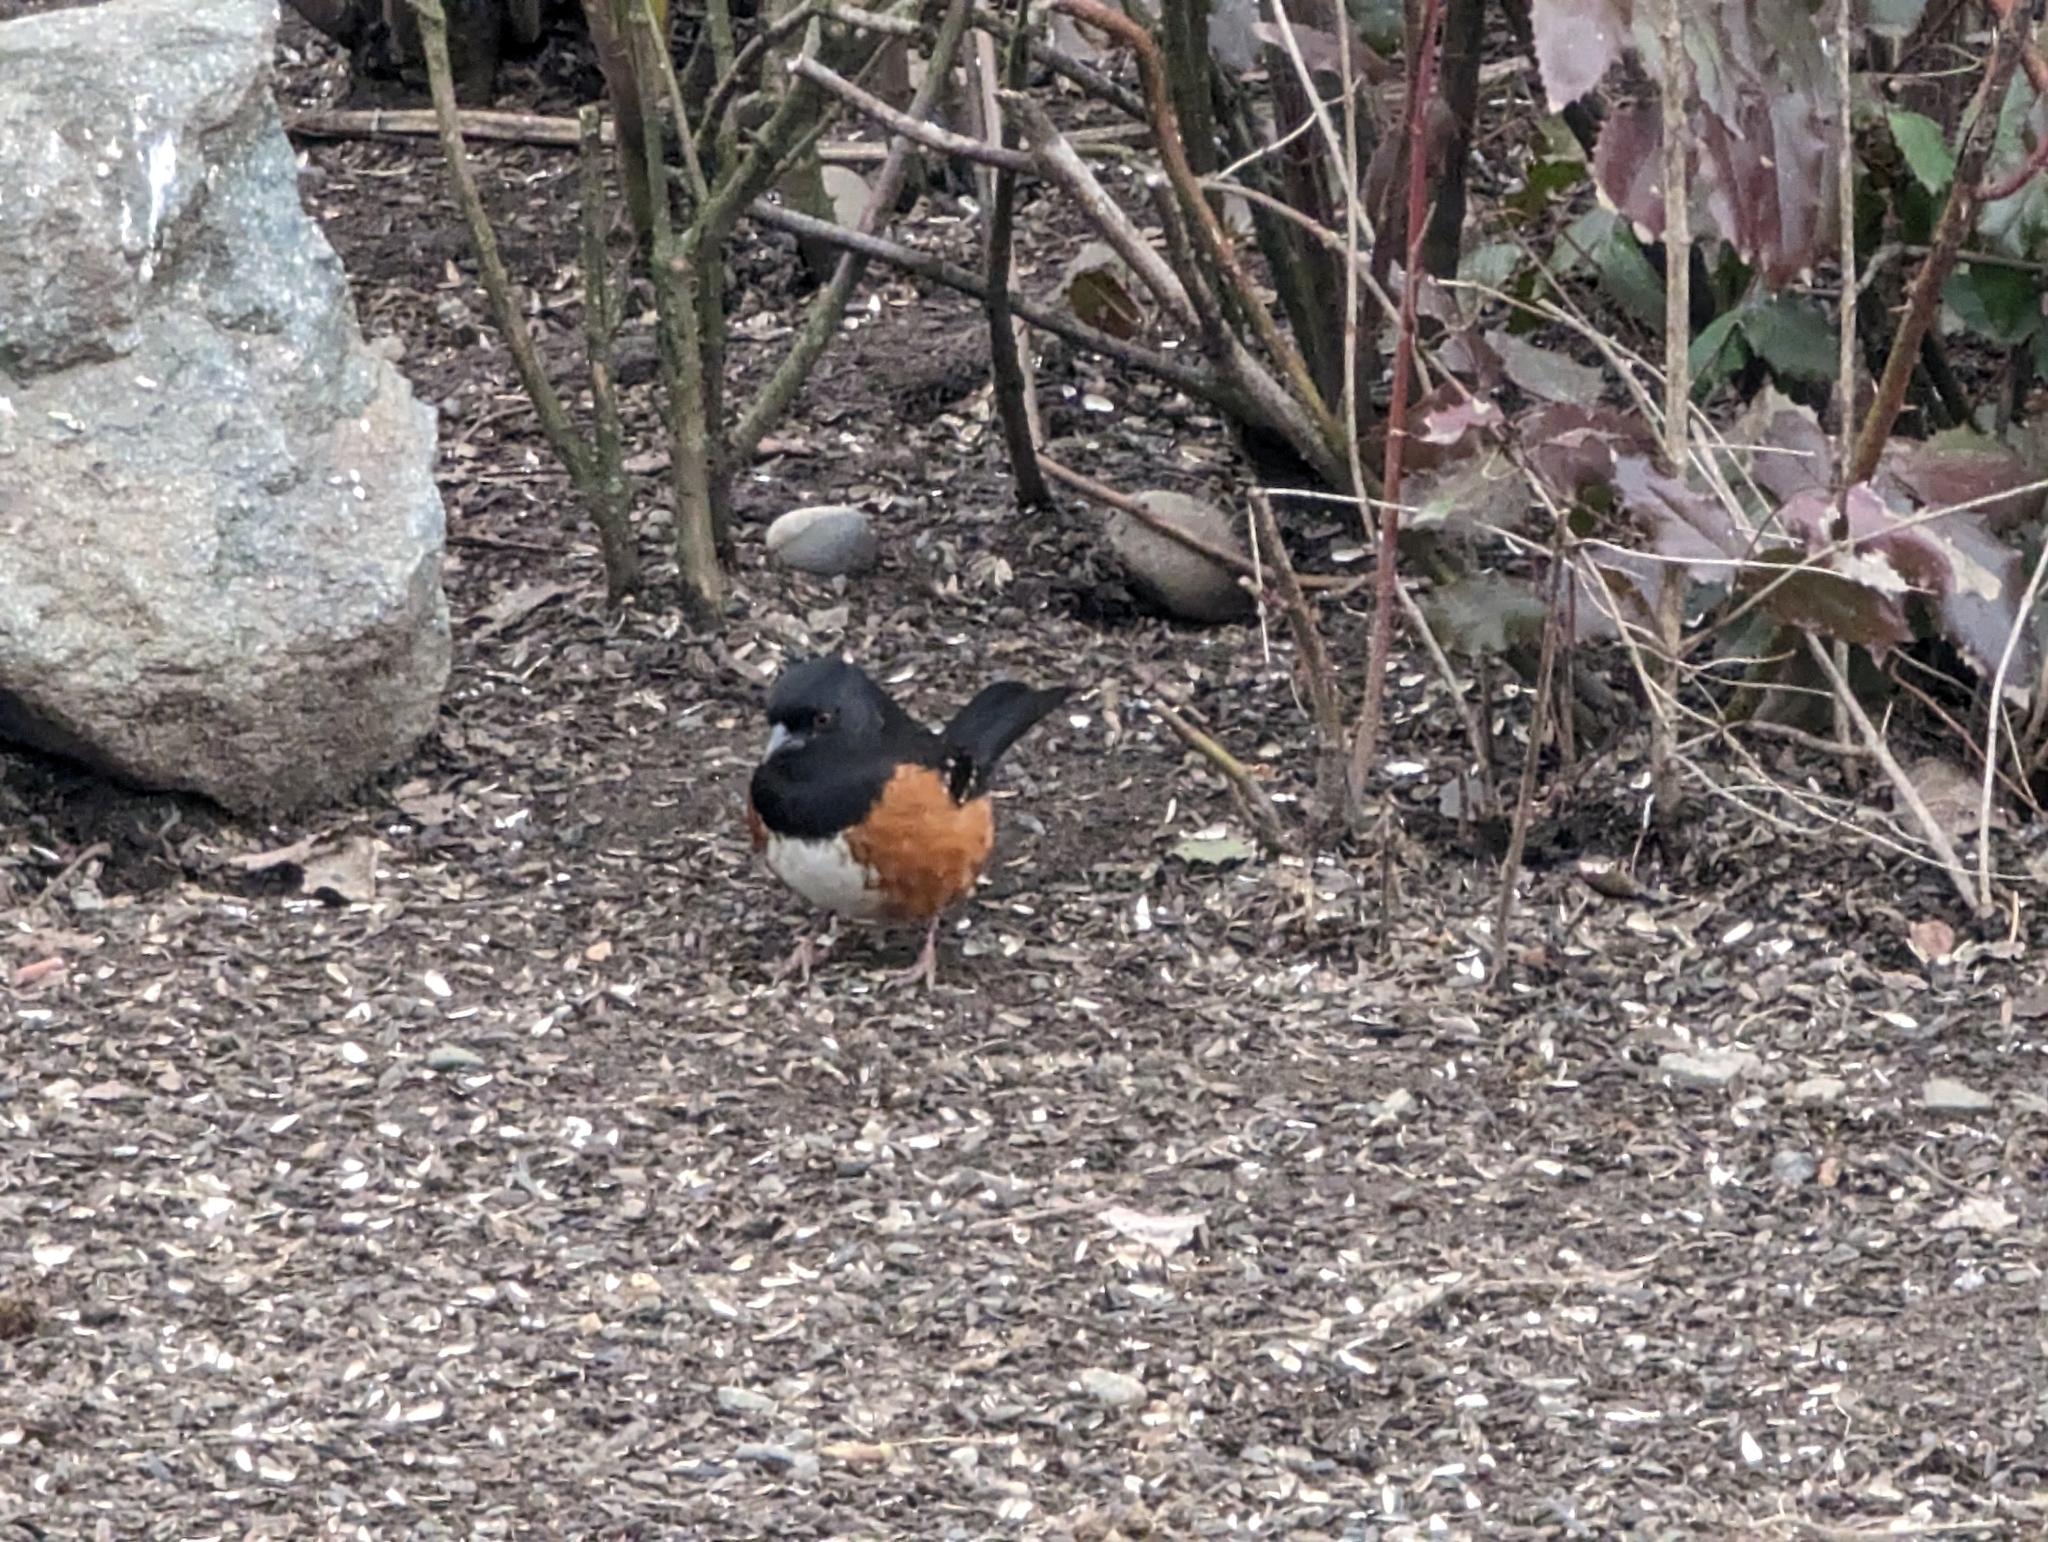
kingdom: Animalia
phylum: Chordata
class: Aves
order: Passeriformes
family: Passerellidae
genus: Pipilo
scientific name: Pipilo maculatus
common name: Spotted towhee
